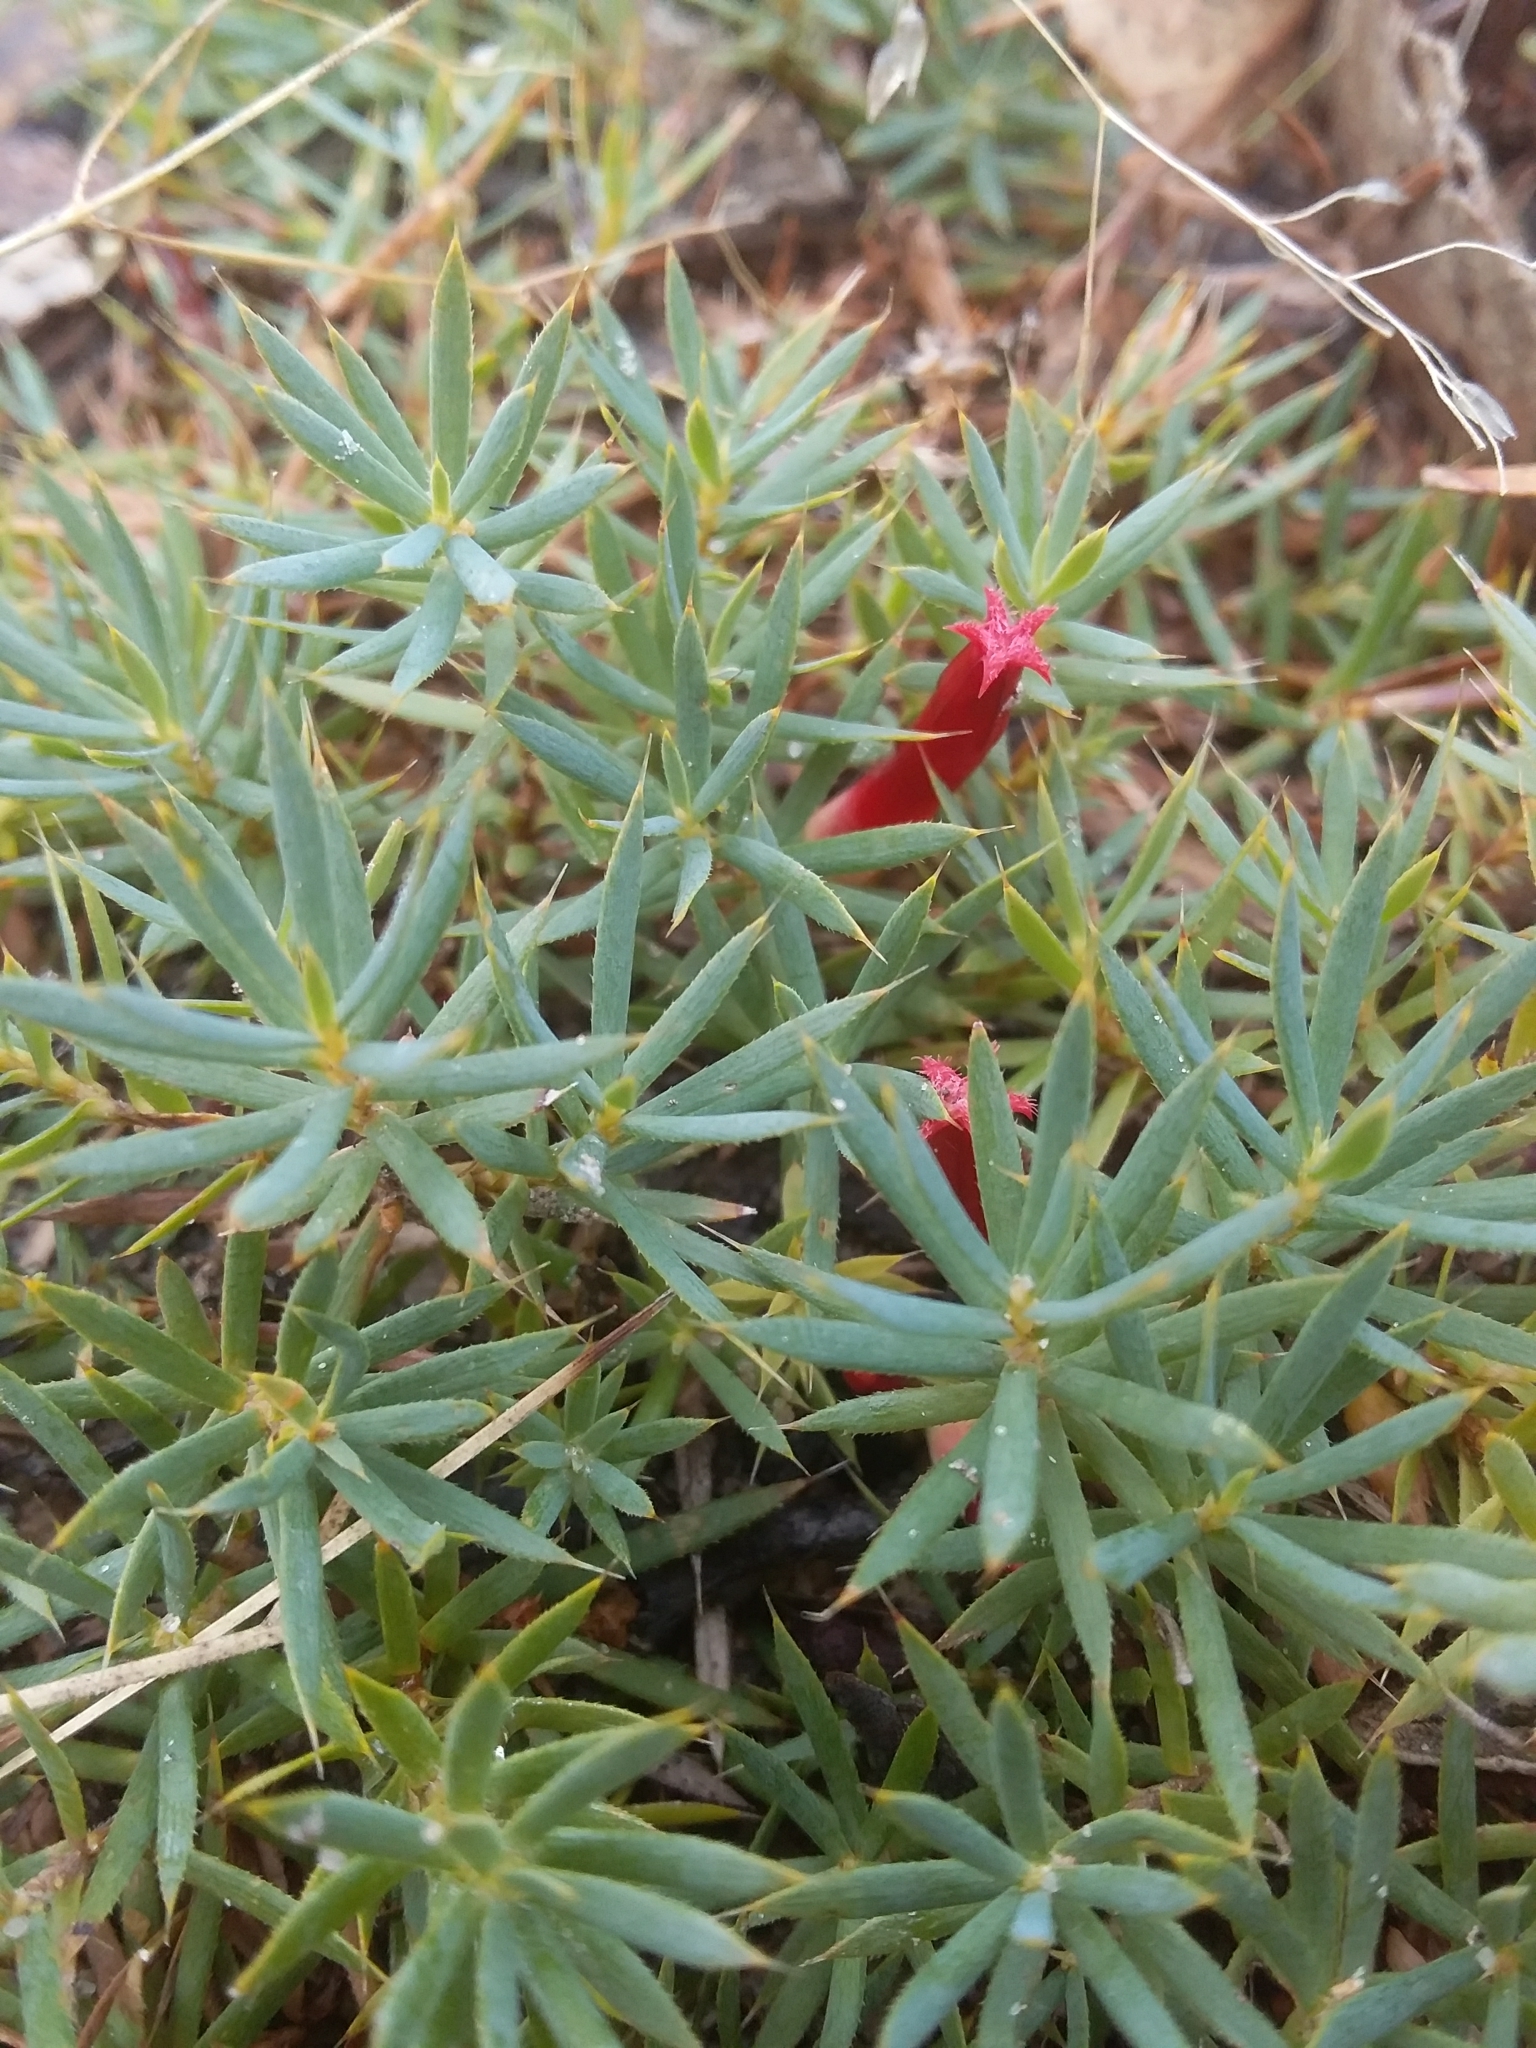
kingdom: Plantae
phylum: Tracheophyta
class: Magnoliopsida
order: Ericales
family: Ericaceae
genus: Styphelia
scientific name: Styphelia humifusa
